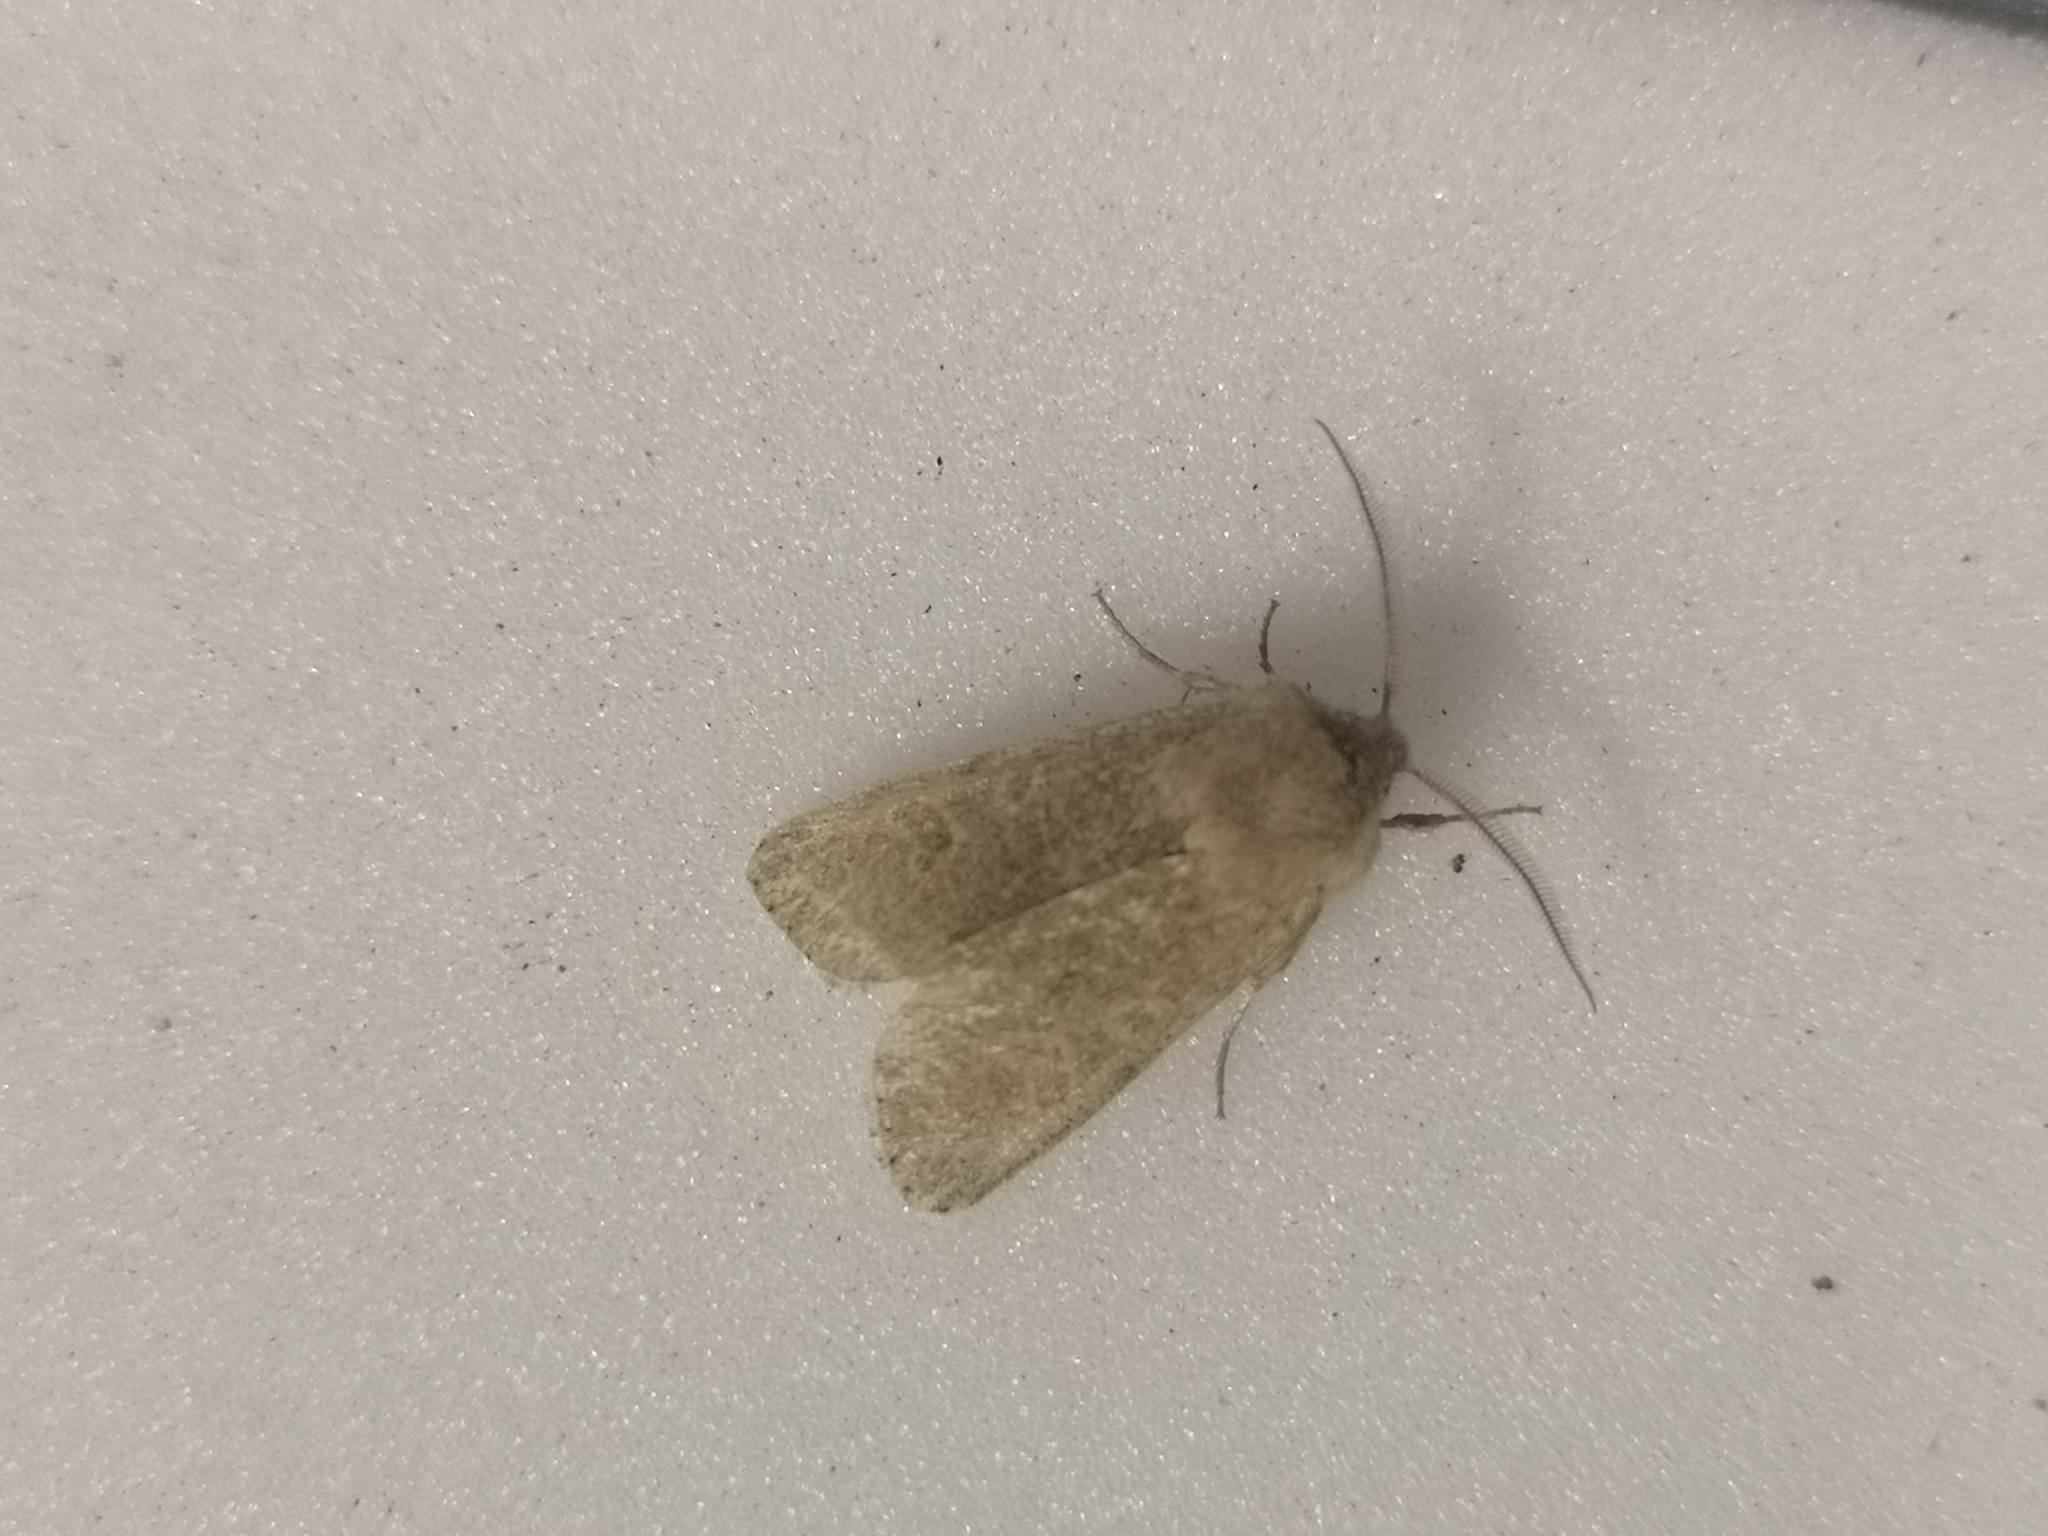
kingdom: Animalia
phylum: Arthropoda
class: Insecta
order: Lepidoptera
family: Noctuidae
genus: Orthosia
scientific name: Orthosia cruda
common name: Small quaker
